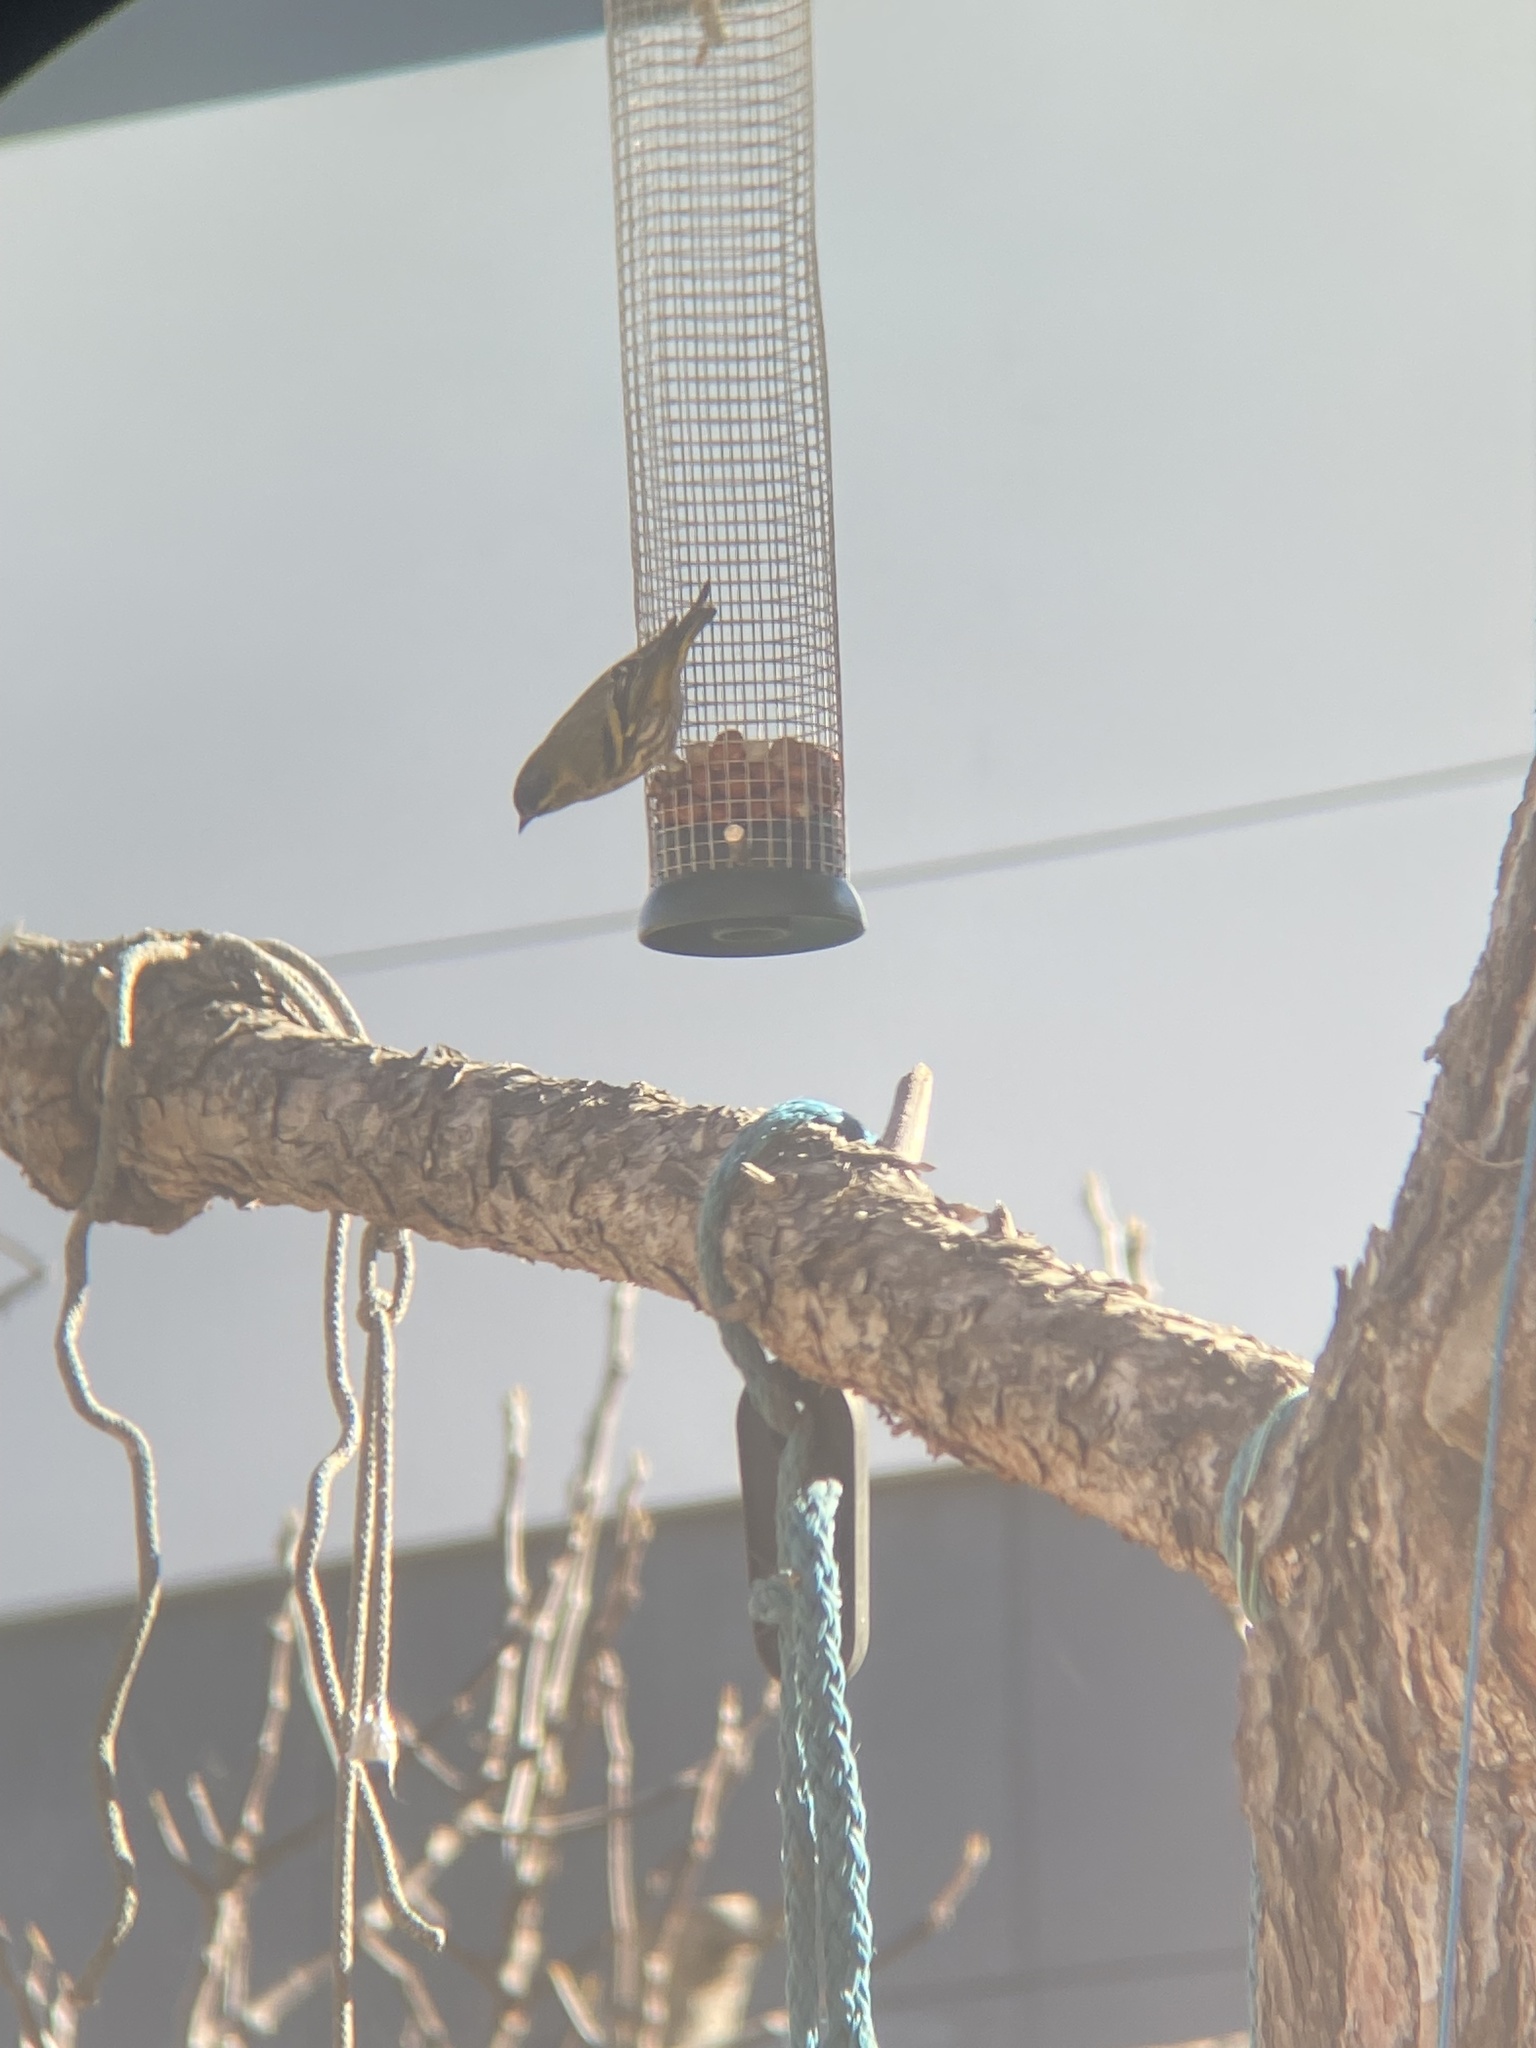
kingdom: Animalia
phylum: Chordata
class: Aves
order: Passeriformes
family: Fringillidae
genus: Spinus
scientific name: Spinus spinus
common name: Eurasian siskin
